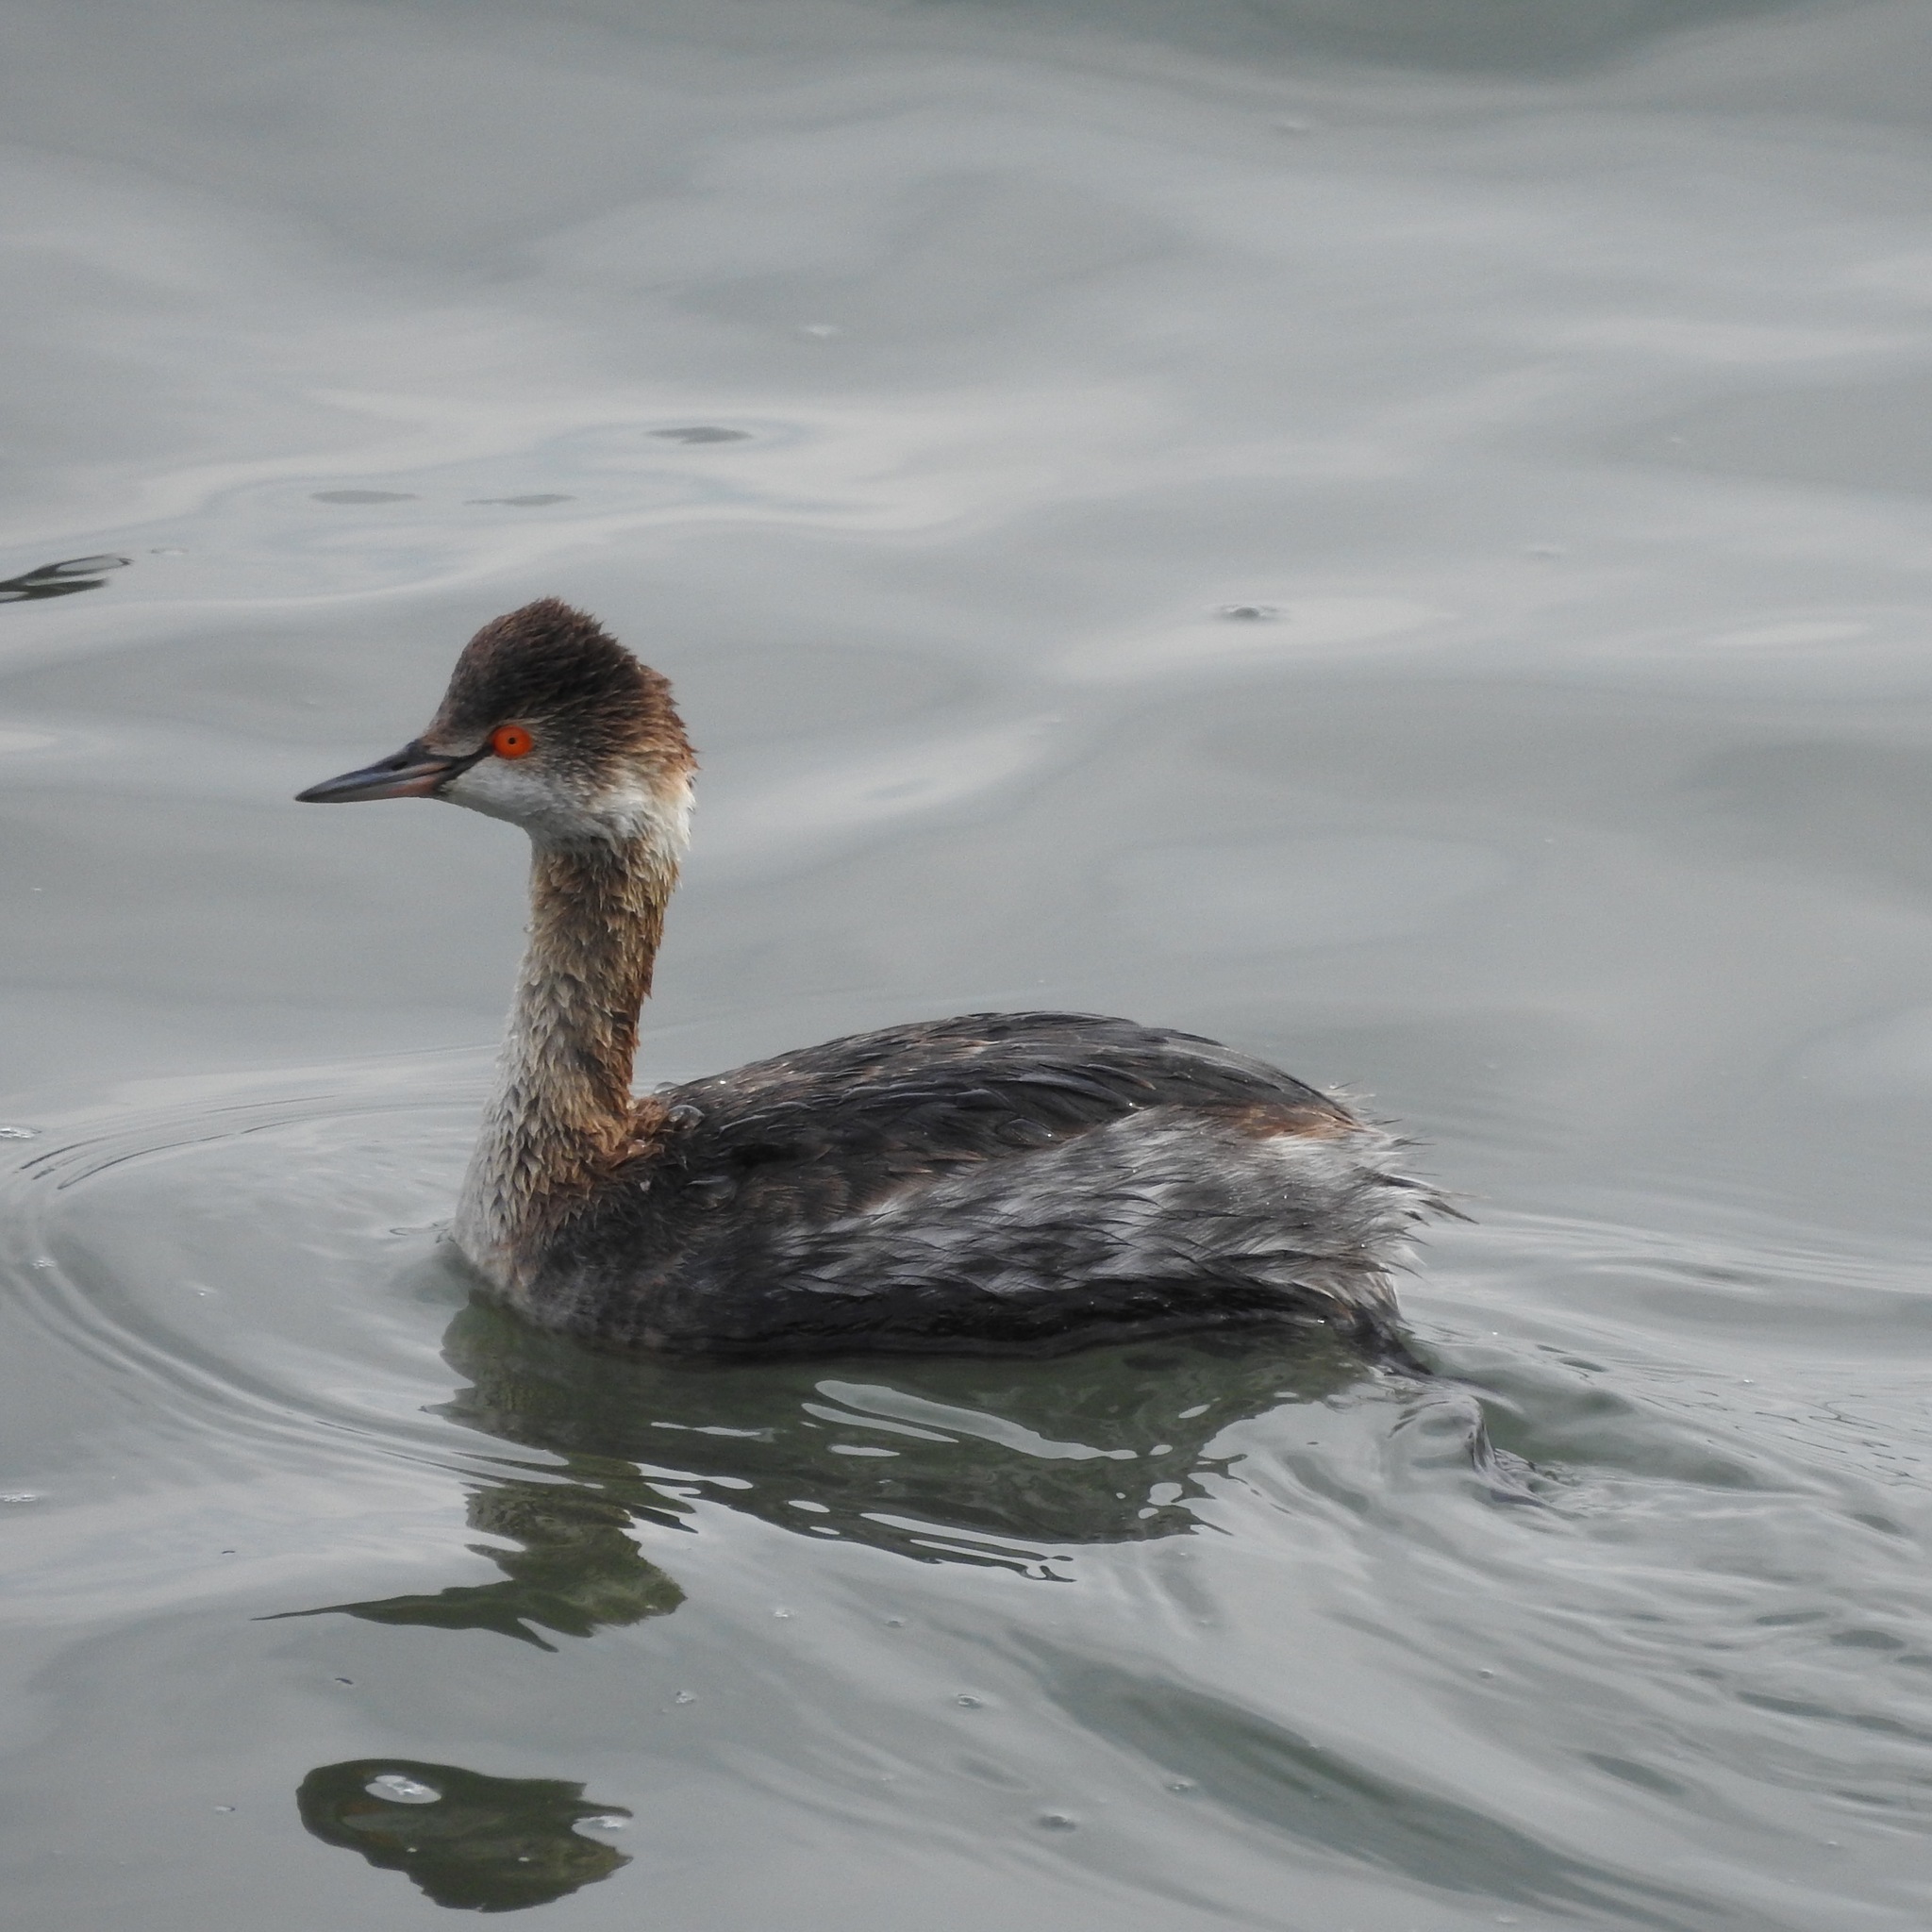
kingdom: Animalia
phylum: Chordata
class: Aves
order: Podicipediformes
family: Podicipedidae
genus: Podiceps
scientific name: Podiceps nigricollis
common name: Black-necked grebe
